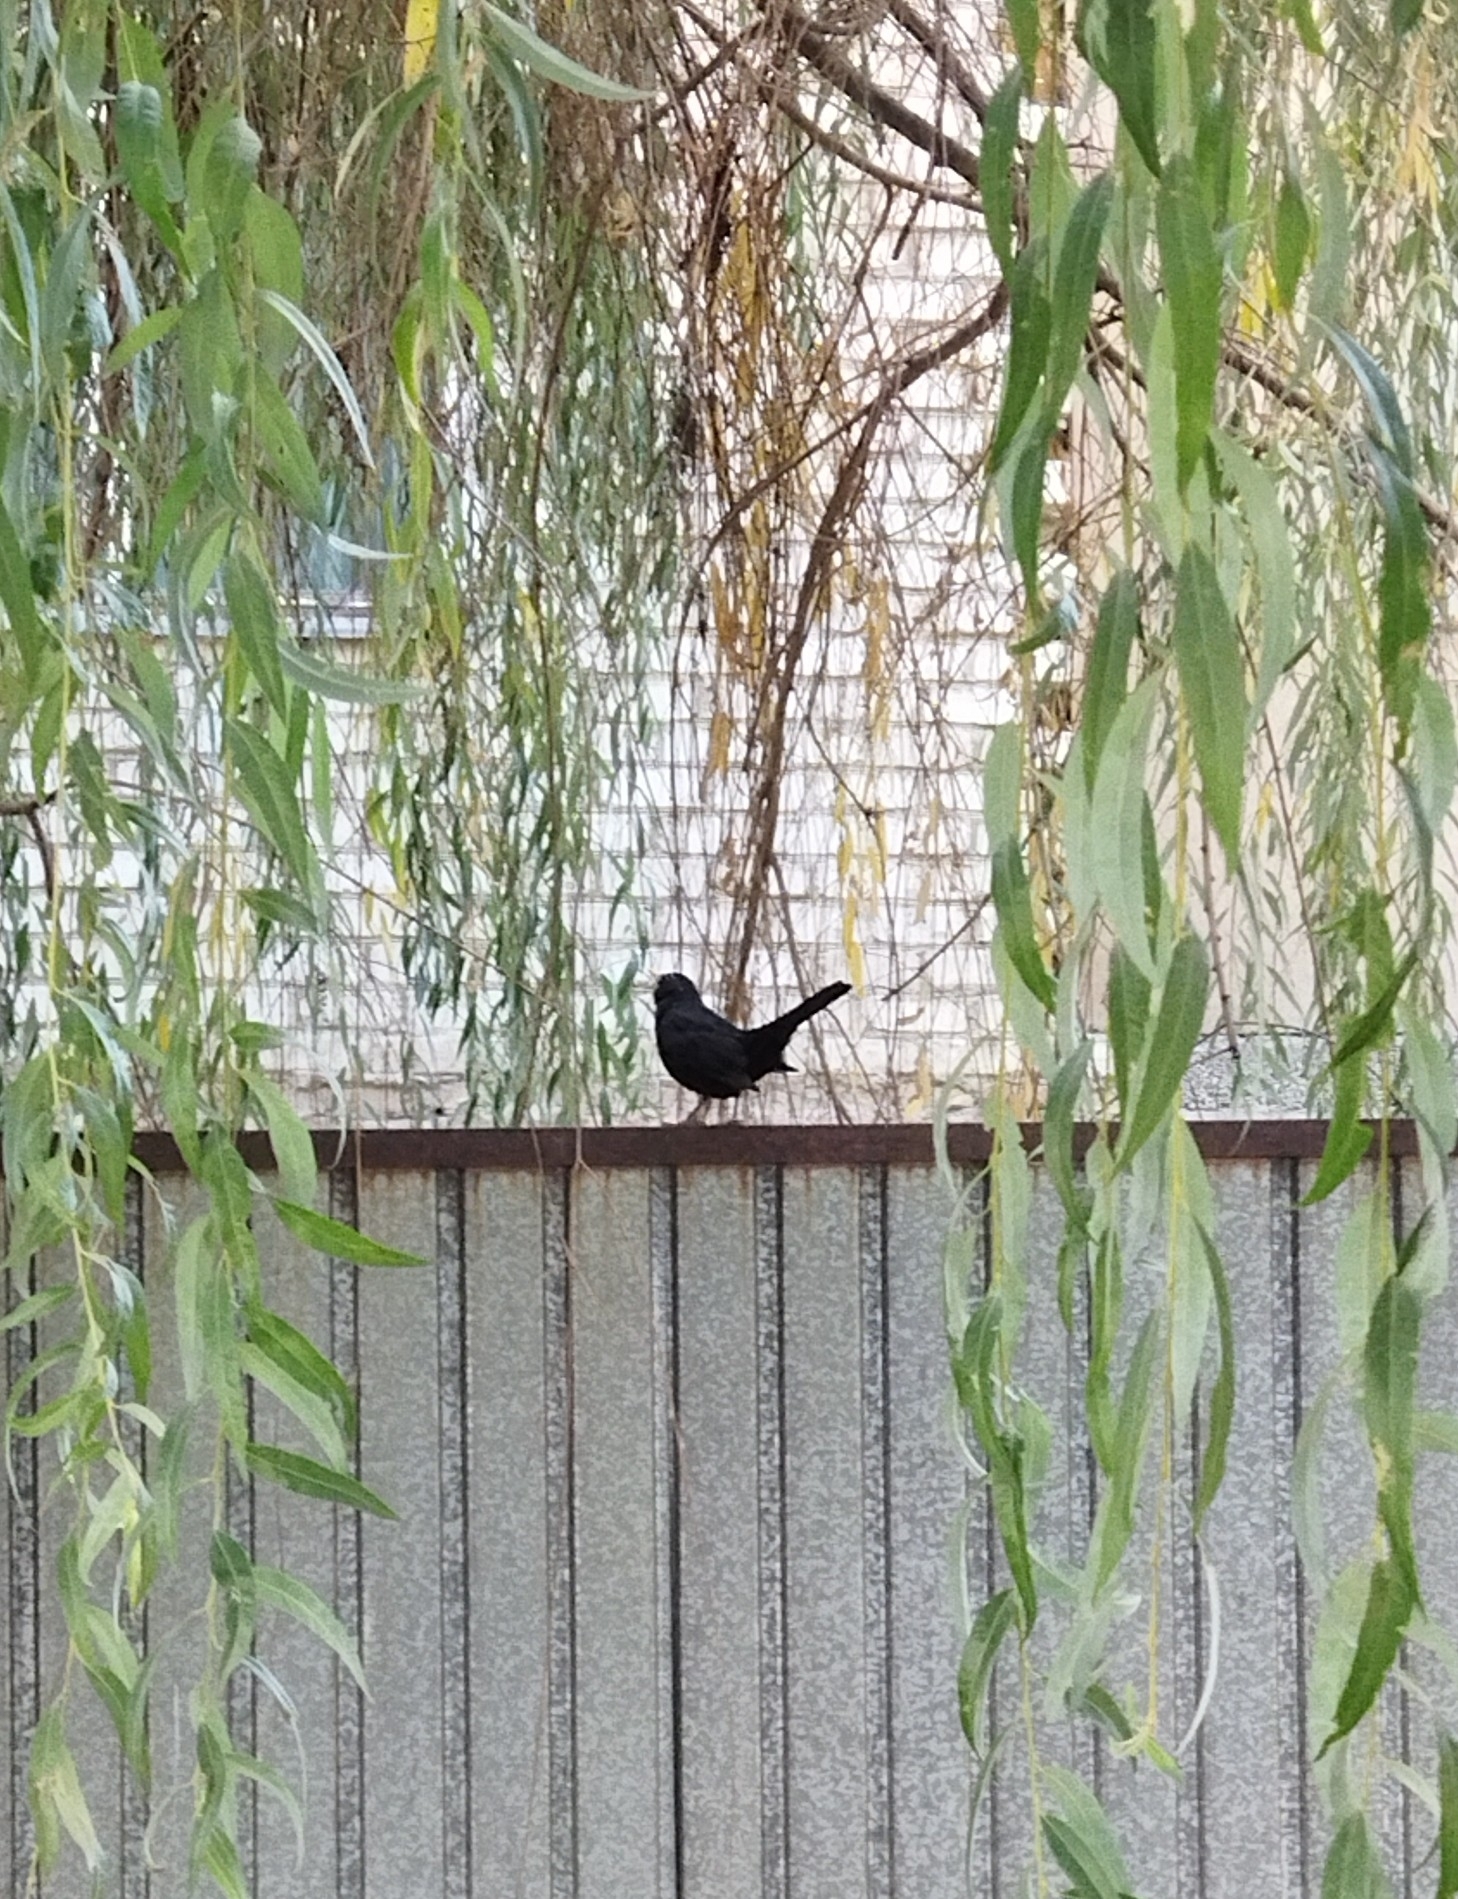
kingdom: Animalia
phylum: Chordata
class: Aves
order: Passeriformes
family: Turdidae
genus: Turdus
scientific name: Turdus merula
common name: Common blackbird
